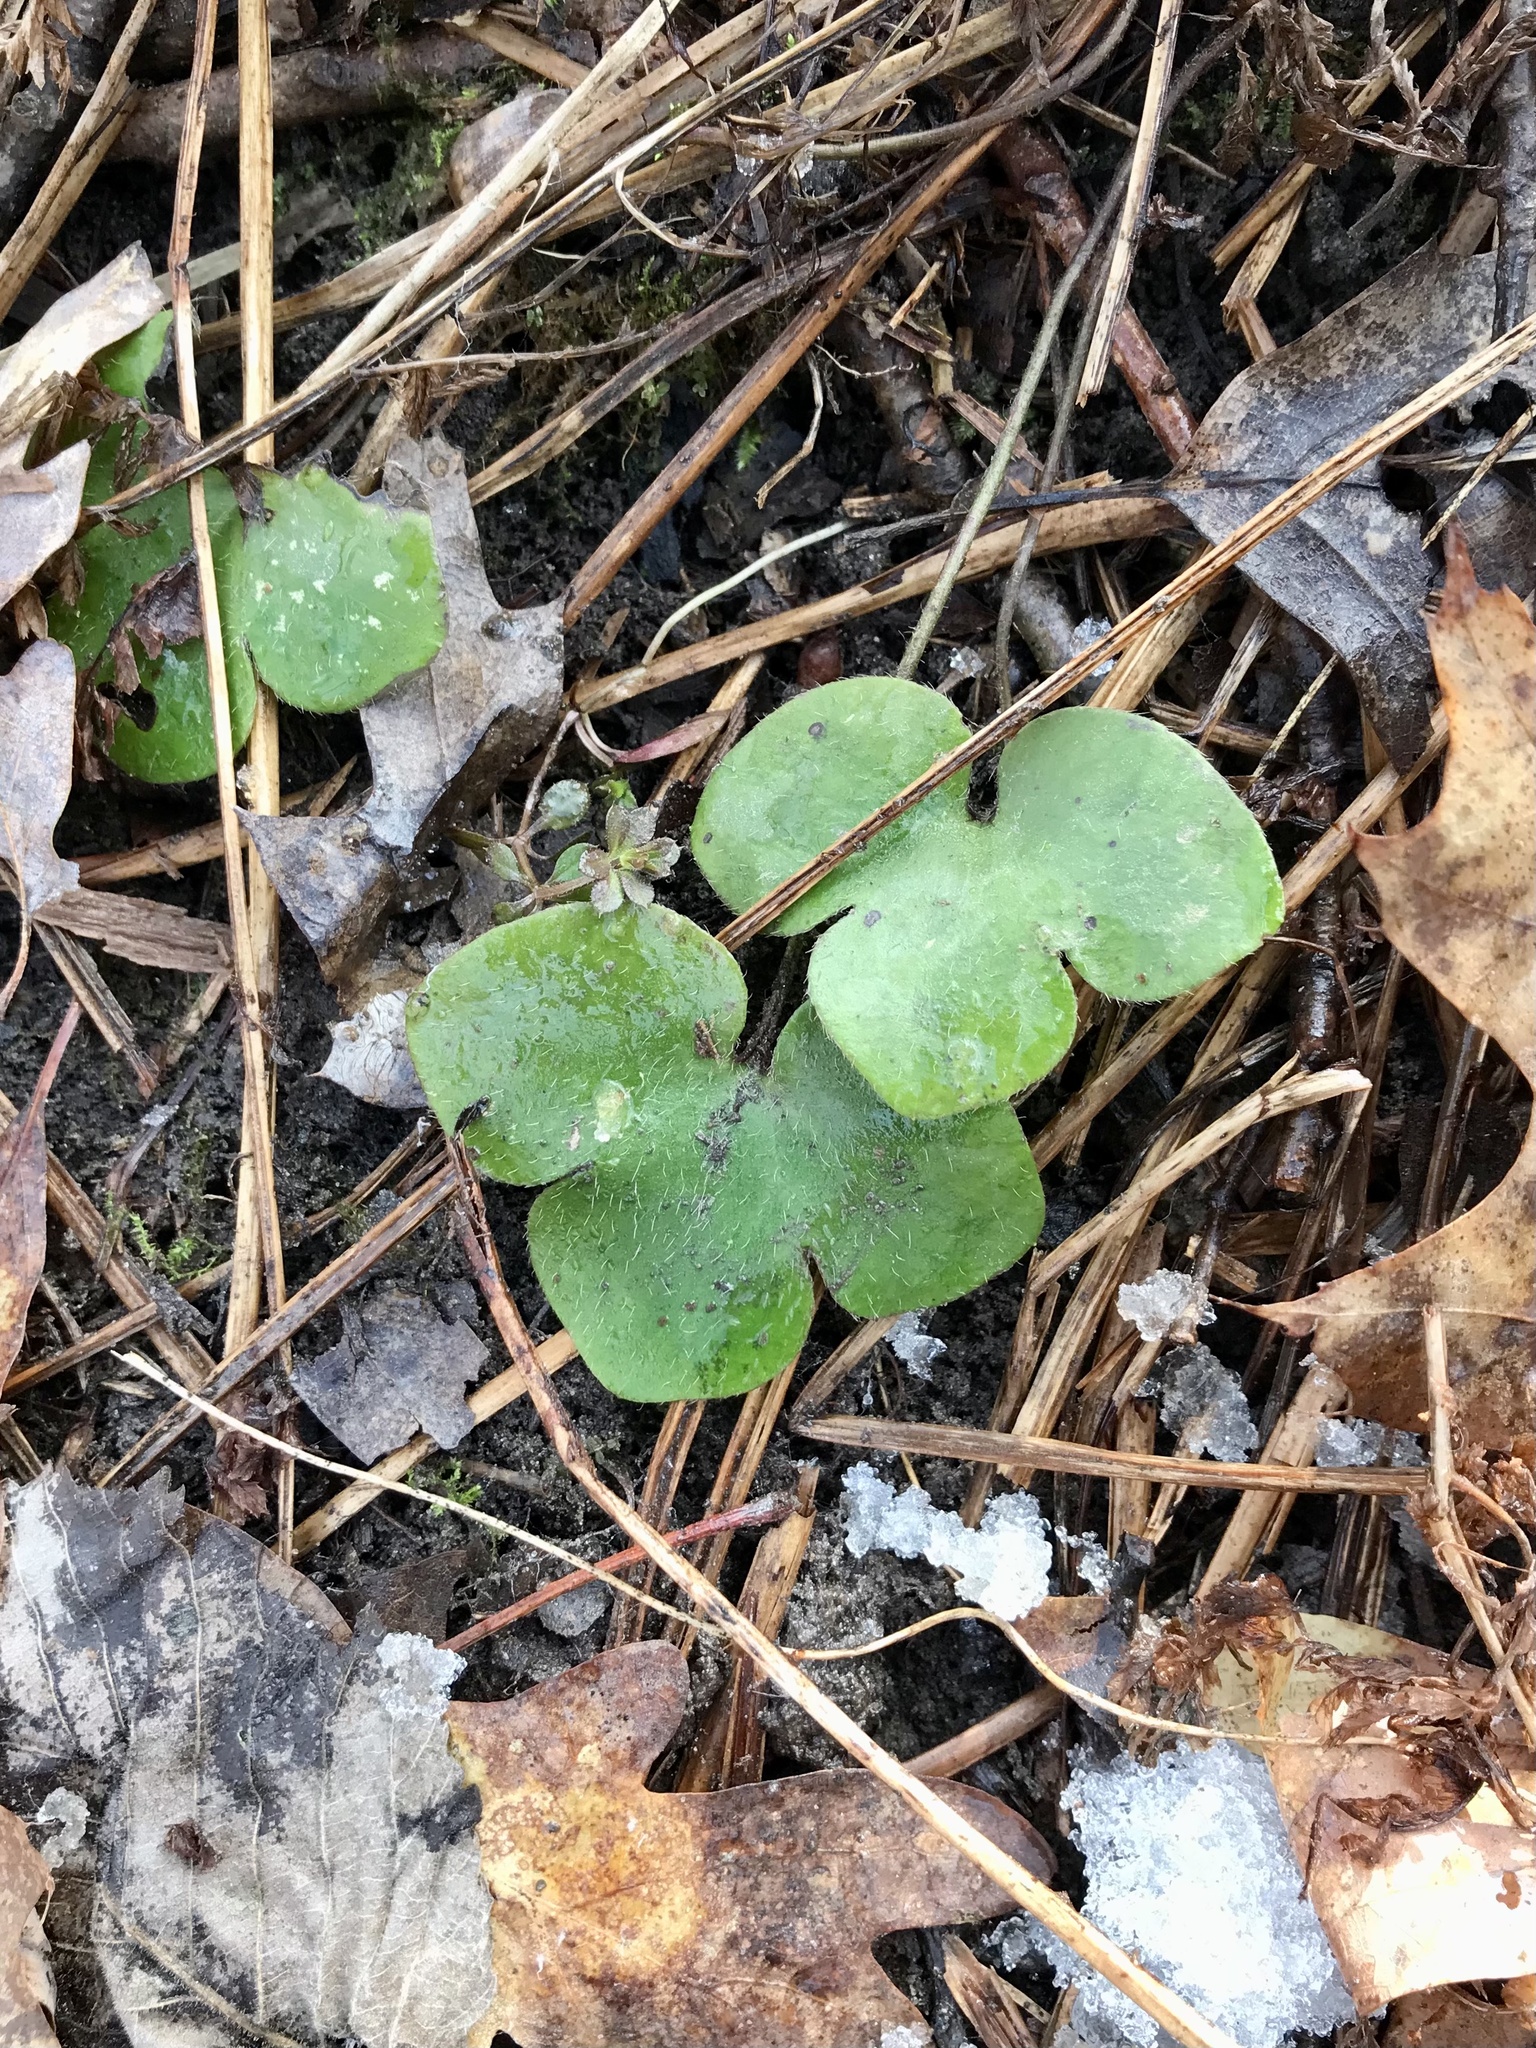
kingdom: Plantae
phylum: Tracheophyta
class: Magnoliopsida
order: Ranunculales
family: Ranunculaceae
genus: Hepatica
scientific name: Hepatica americana
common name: American hepatica
